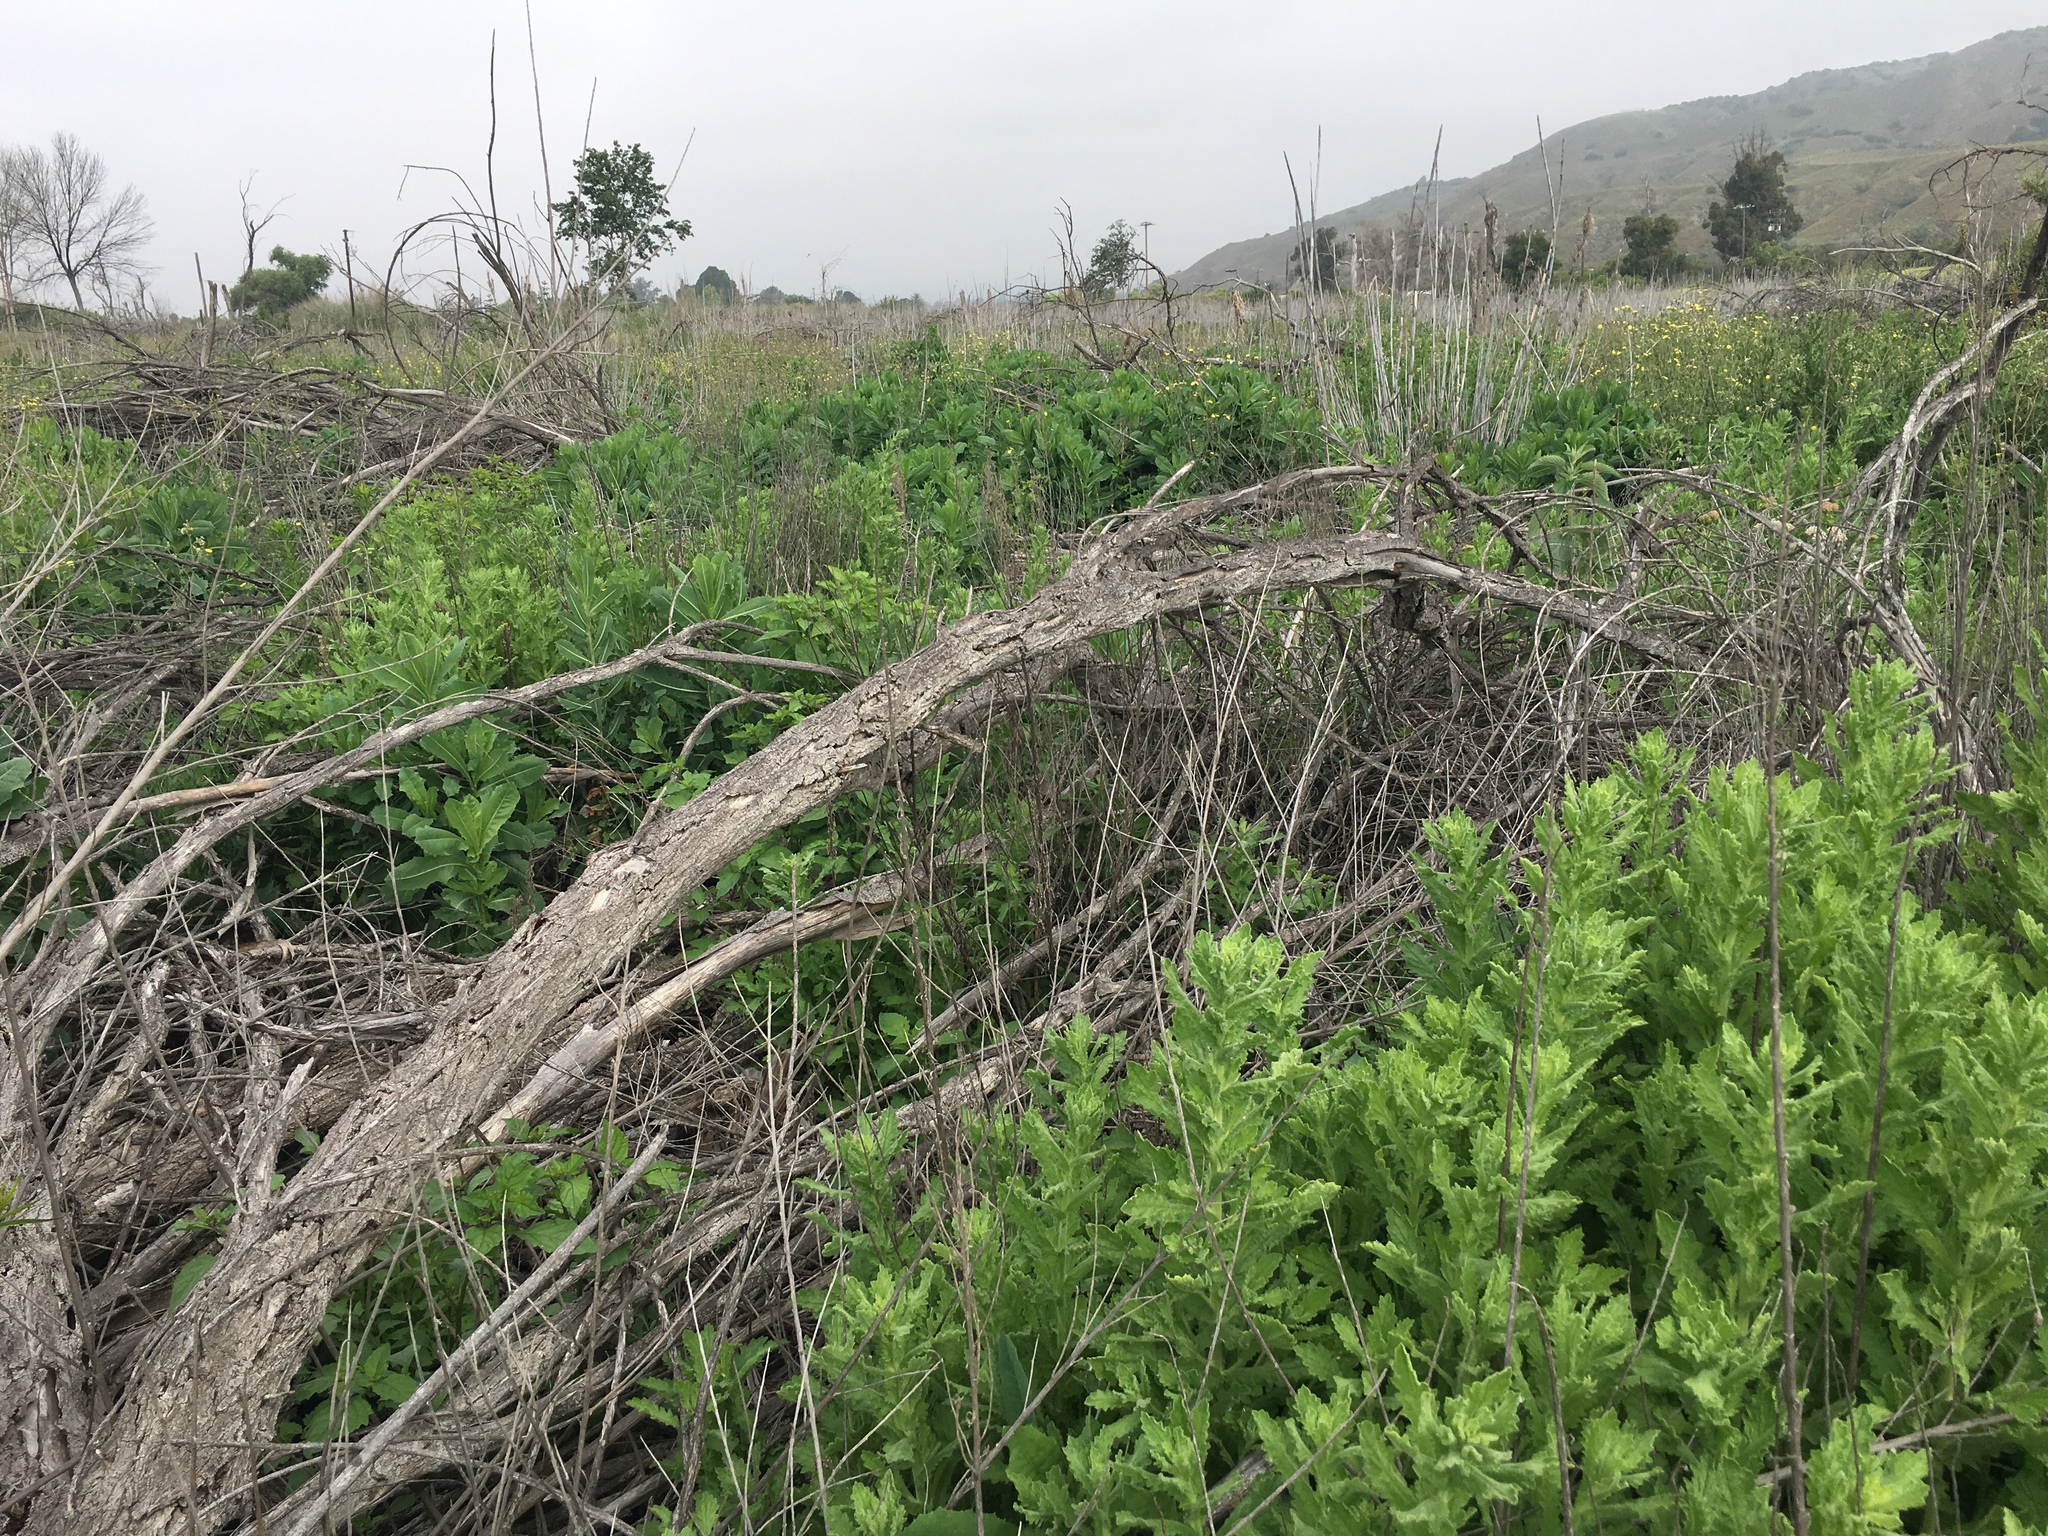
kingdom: Plantae
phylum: Tracheophyta
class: Magnoliopsida
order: Asterales
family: Asteraceae
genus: Laennecia
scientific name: Laennecia coulteri
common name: Coulter's woolwort
